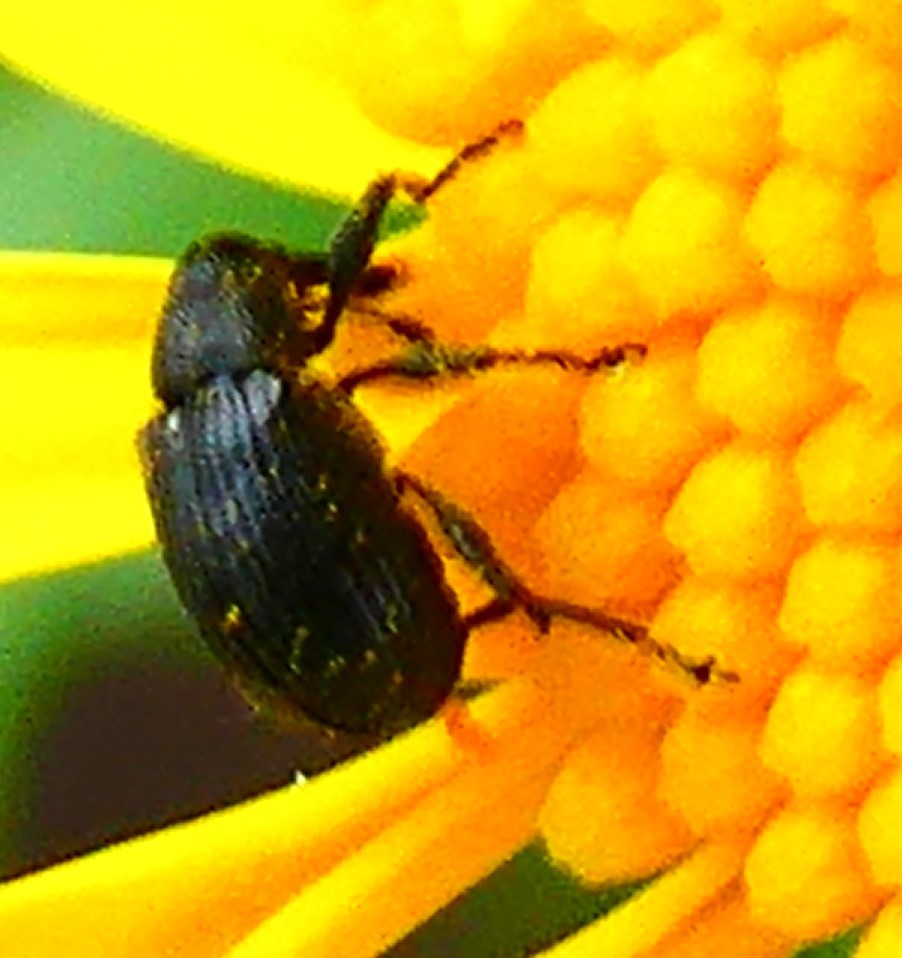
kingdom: Animalia
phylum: Arthropoda
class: Insecta
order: Coleoptera
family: Curculionidae
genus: Anthonomus
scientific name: Anthonomus rubi
